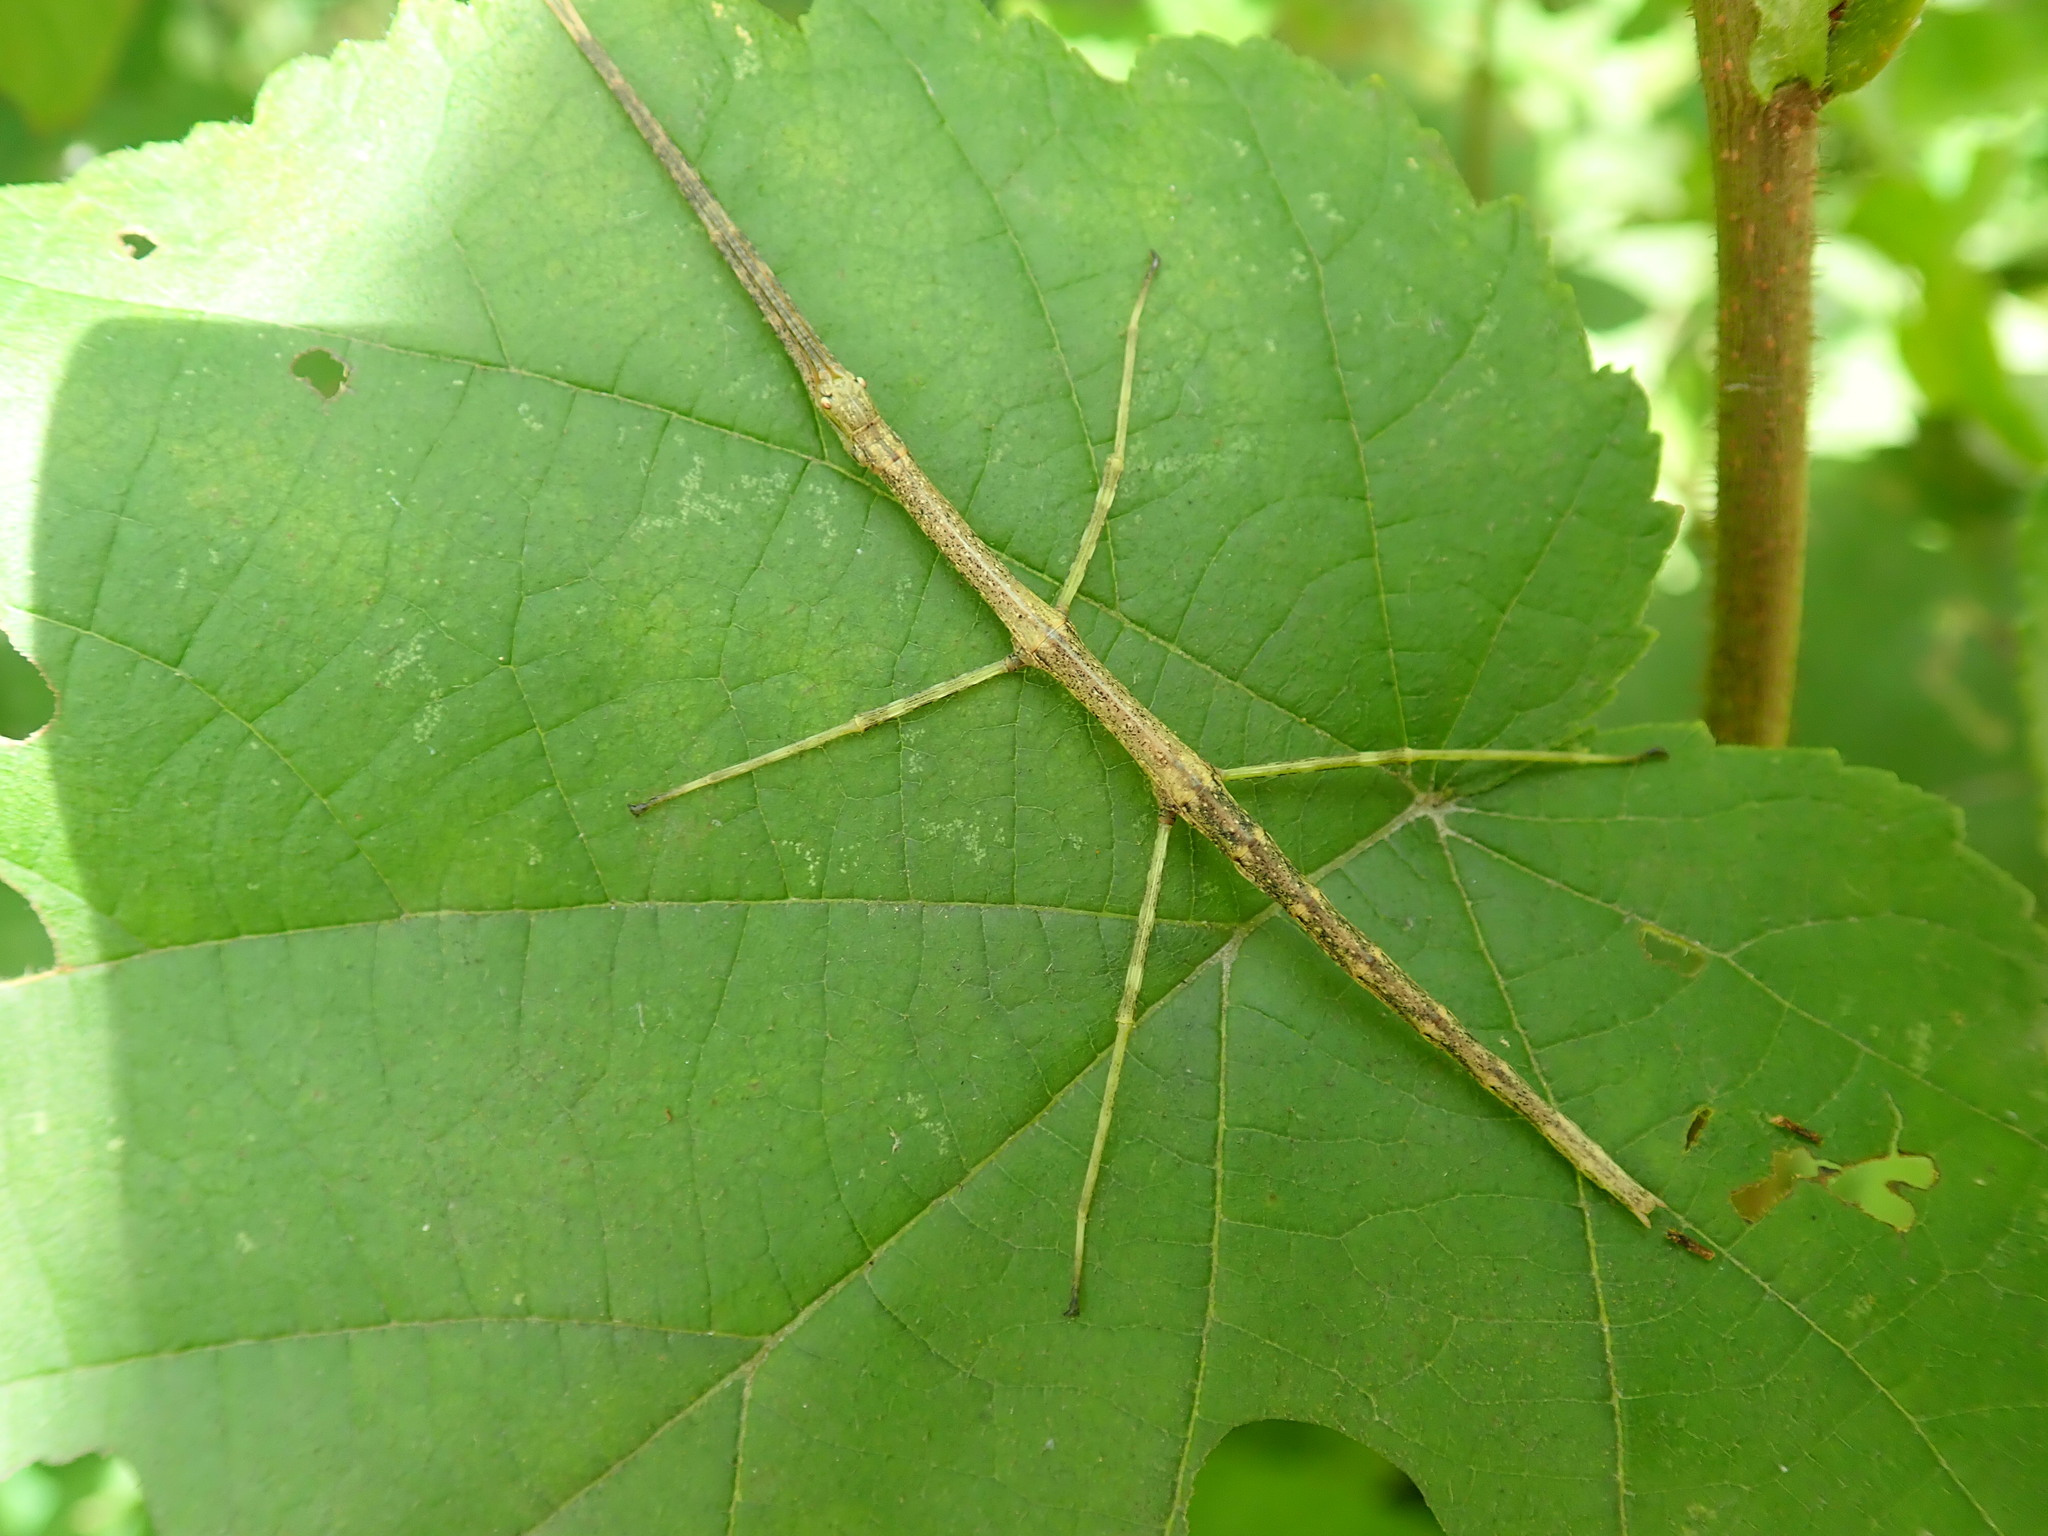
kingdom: Animalia
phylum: Arthropoda
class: Insecta
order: Phasmida
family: Diapheromeridae
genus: Diapheromera
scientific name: Diapheromera femorata
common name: Common american walkingstick
